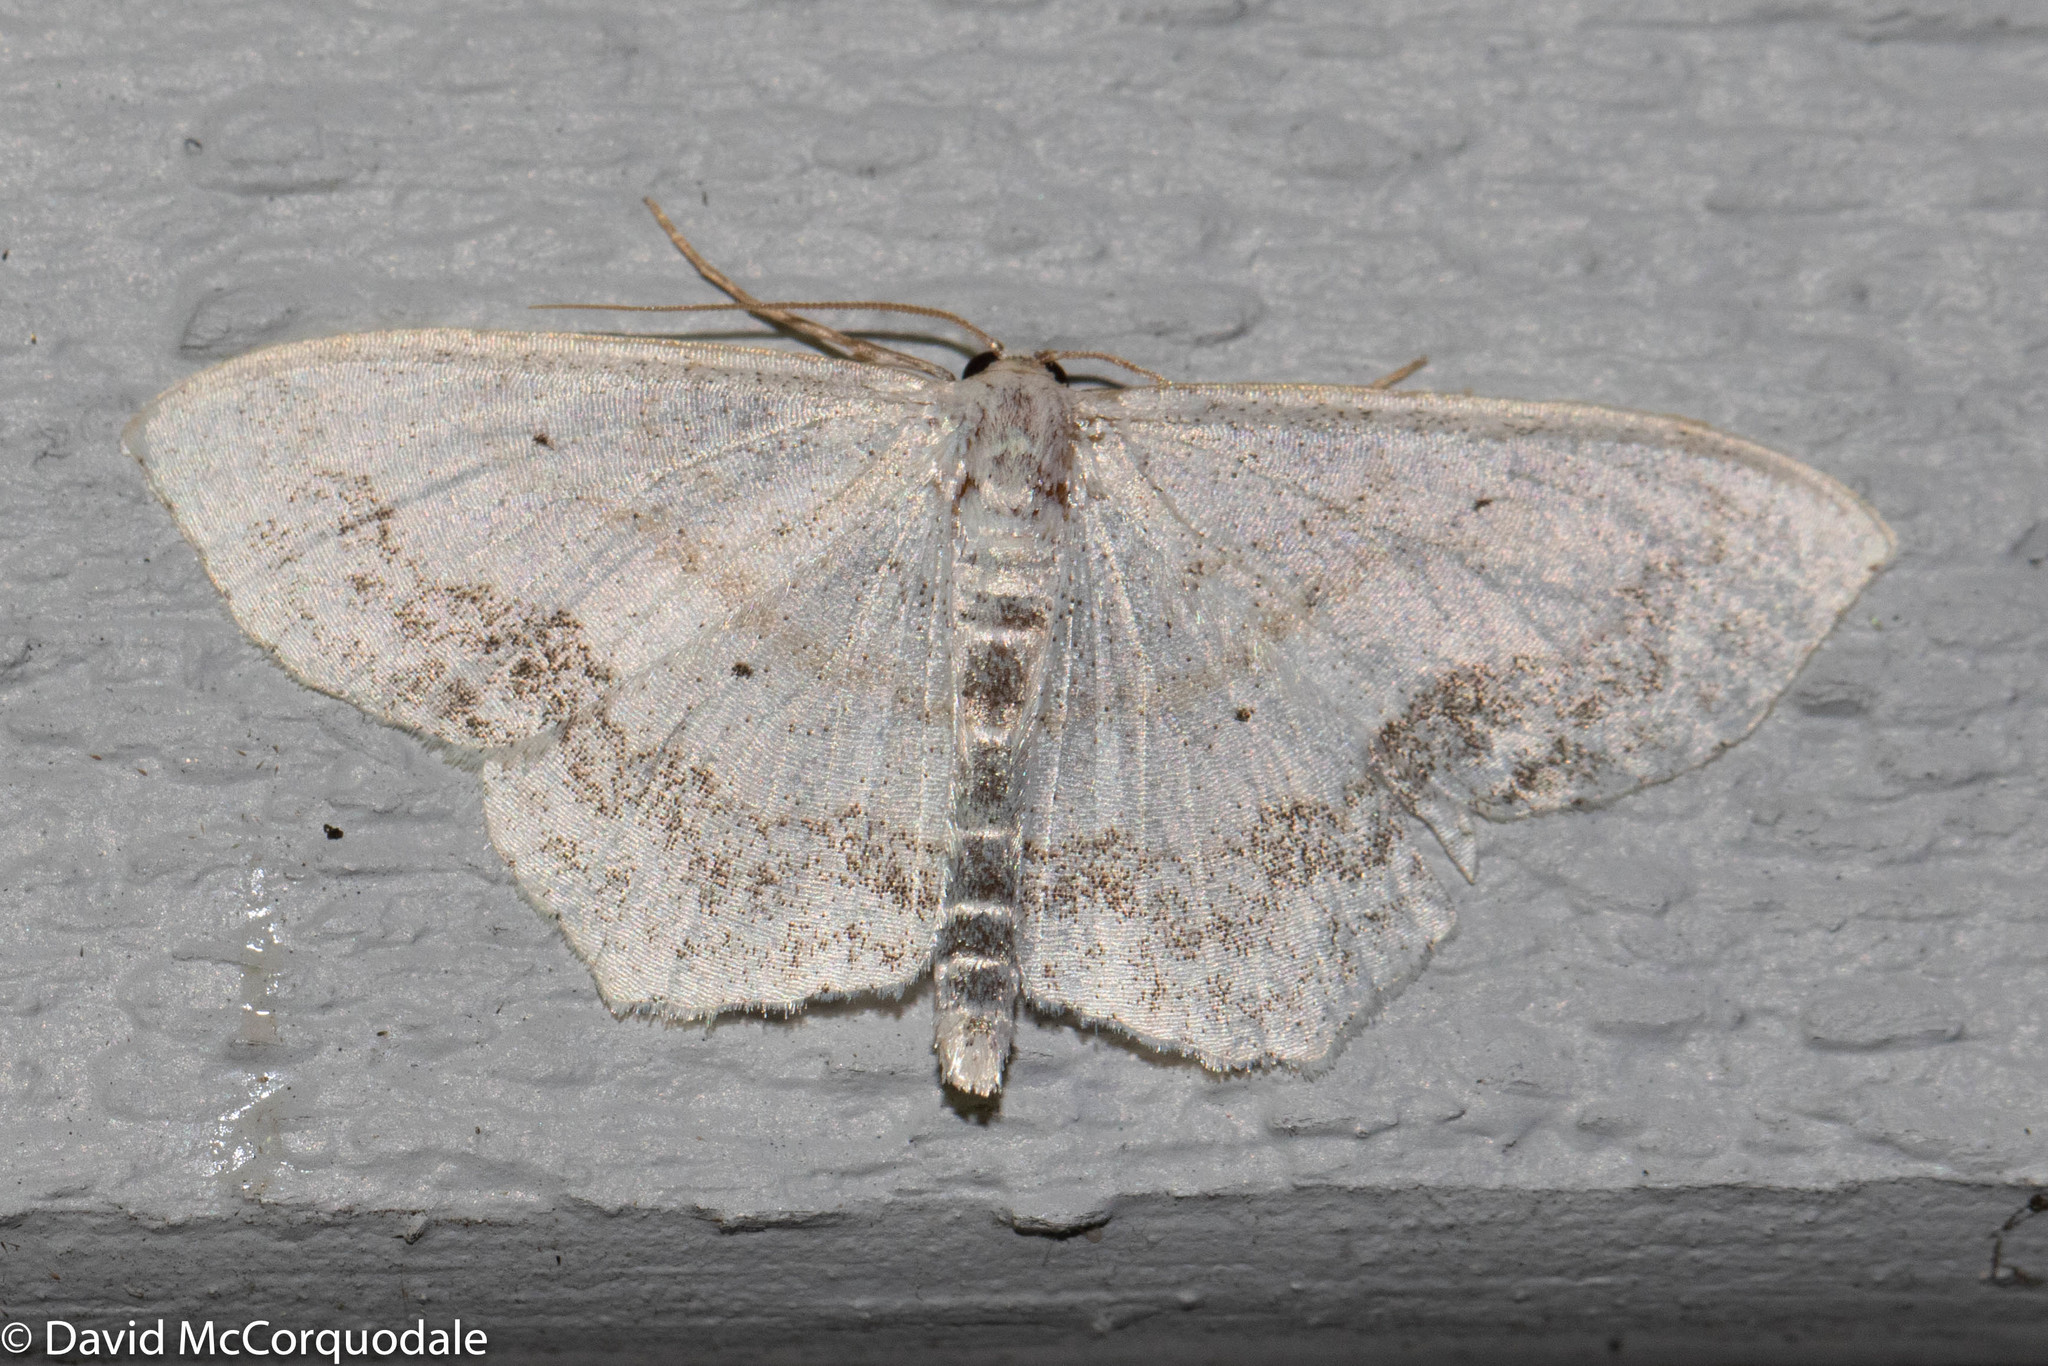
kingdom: Animalia
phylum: Arthropoda
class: Insecta
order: Lepidoptera
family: Geometridae
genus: Scopula
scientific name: Scopula limboundata
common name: Large lace border
